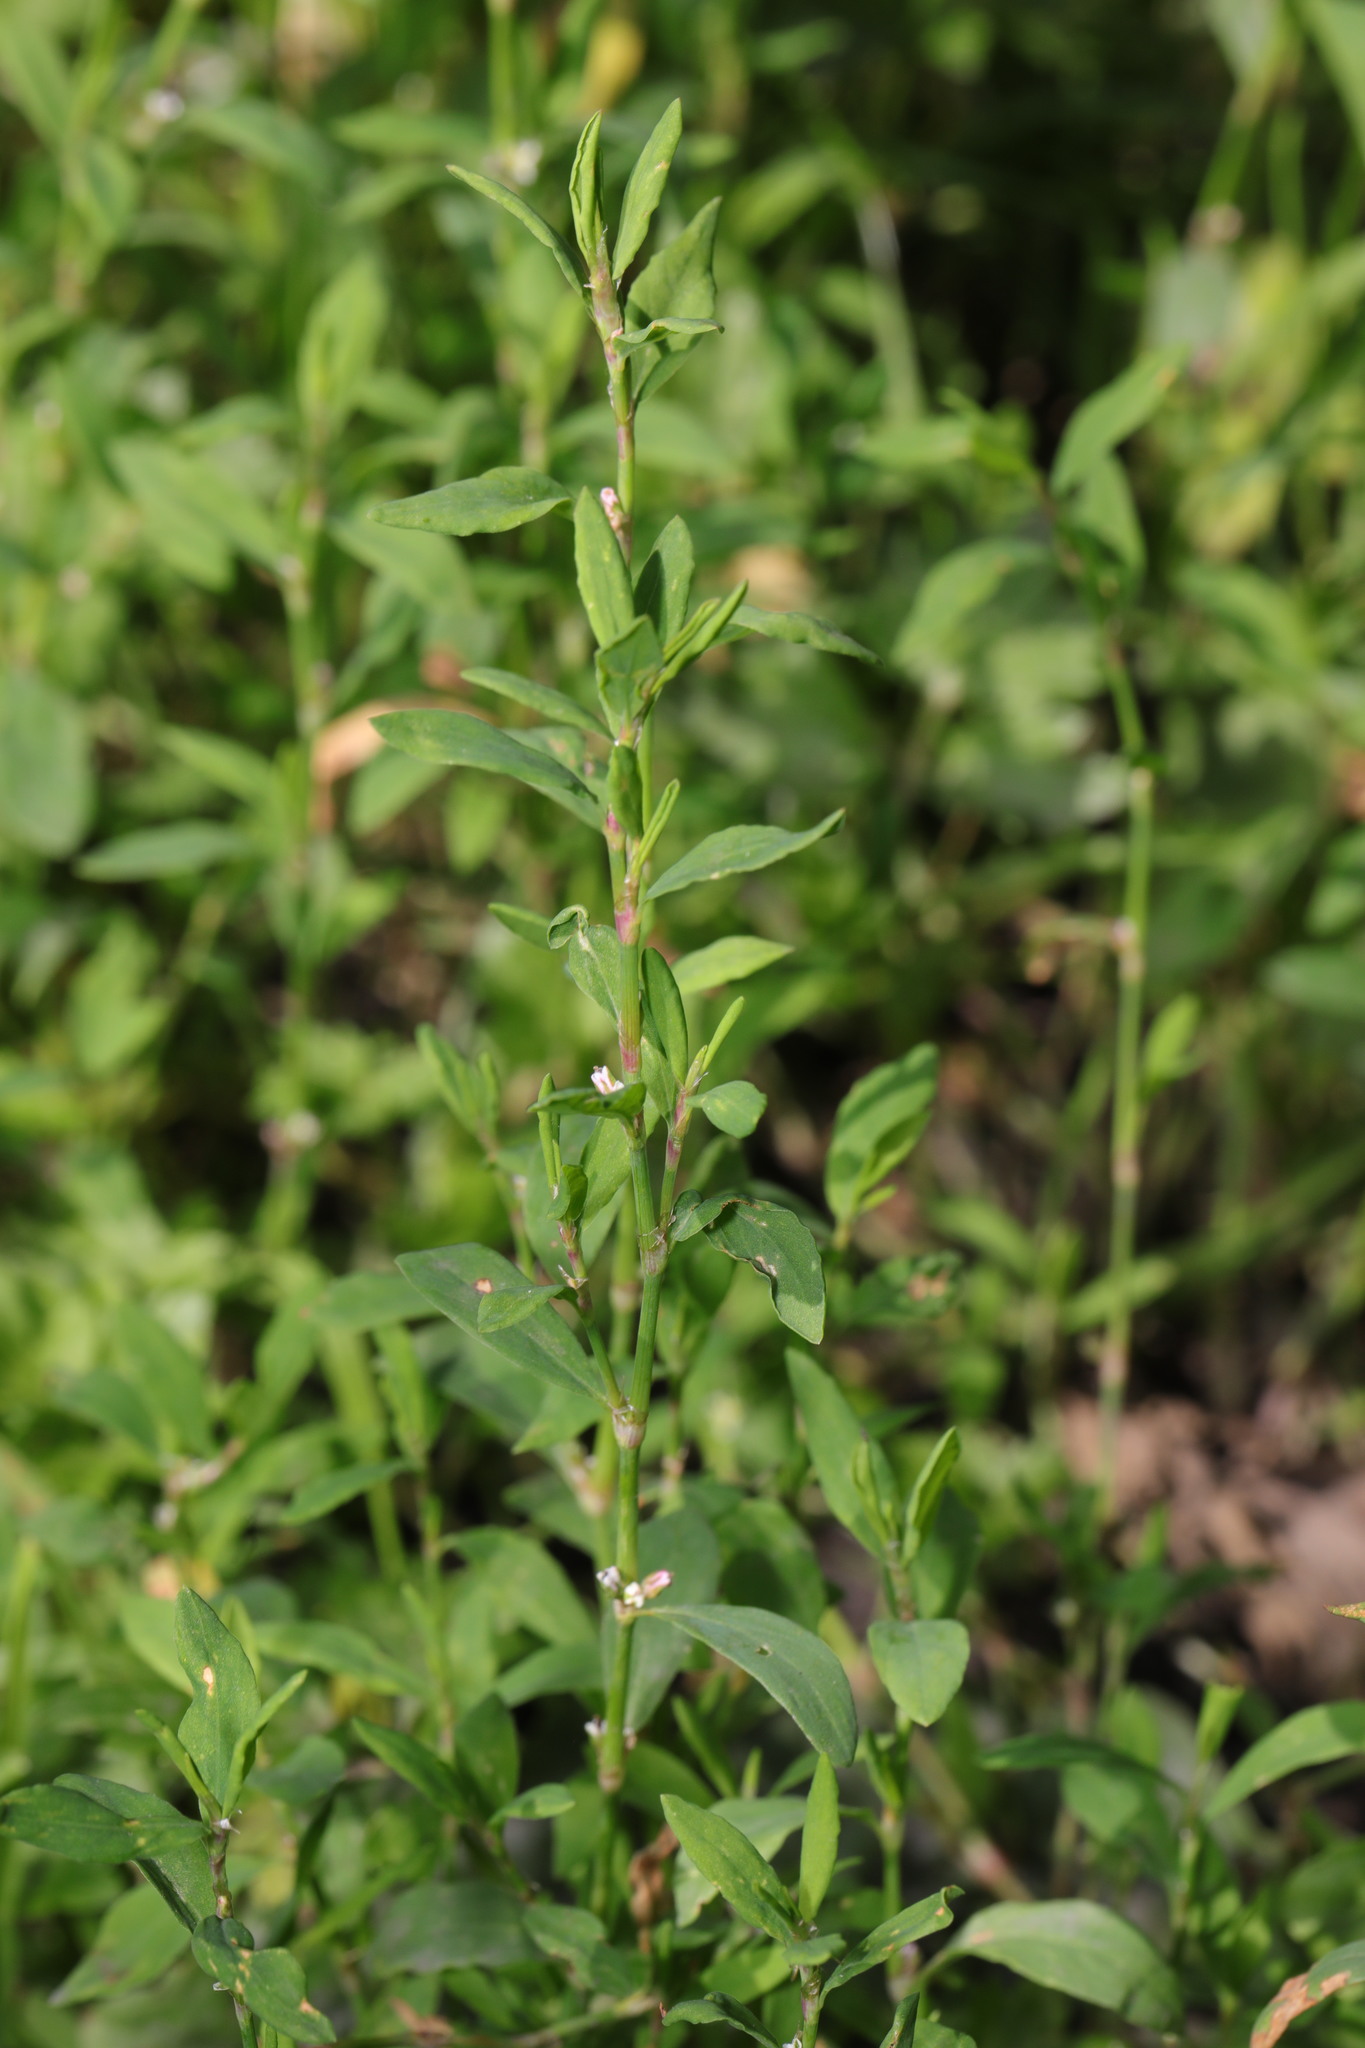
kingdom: Plantae
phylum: Tracheophyta
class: Magnoliopsida
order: Caryophyllales
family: Polygonaceae
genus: Polygonum
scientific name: Polygonum aviculare
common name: Prostrate knotweed
